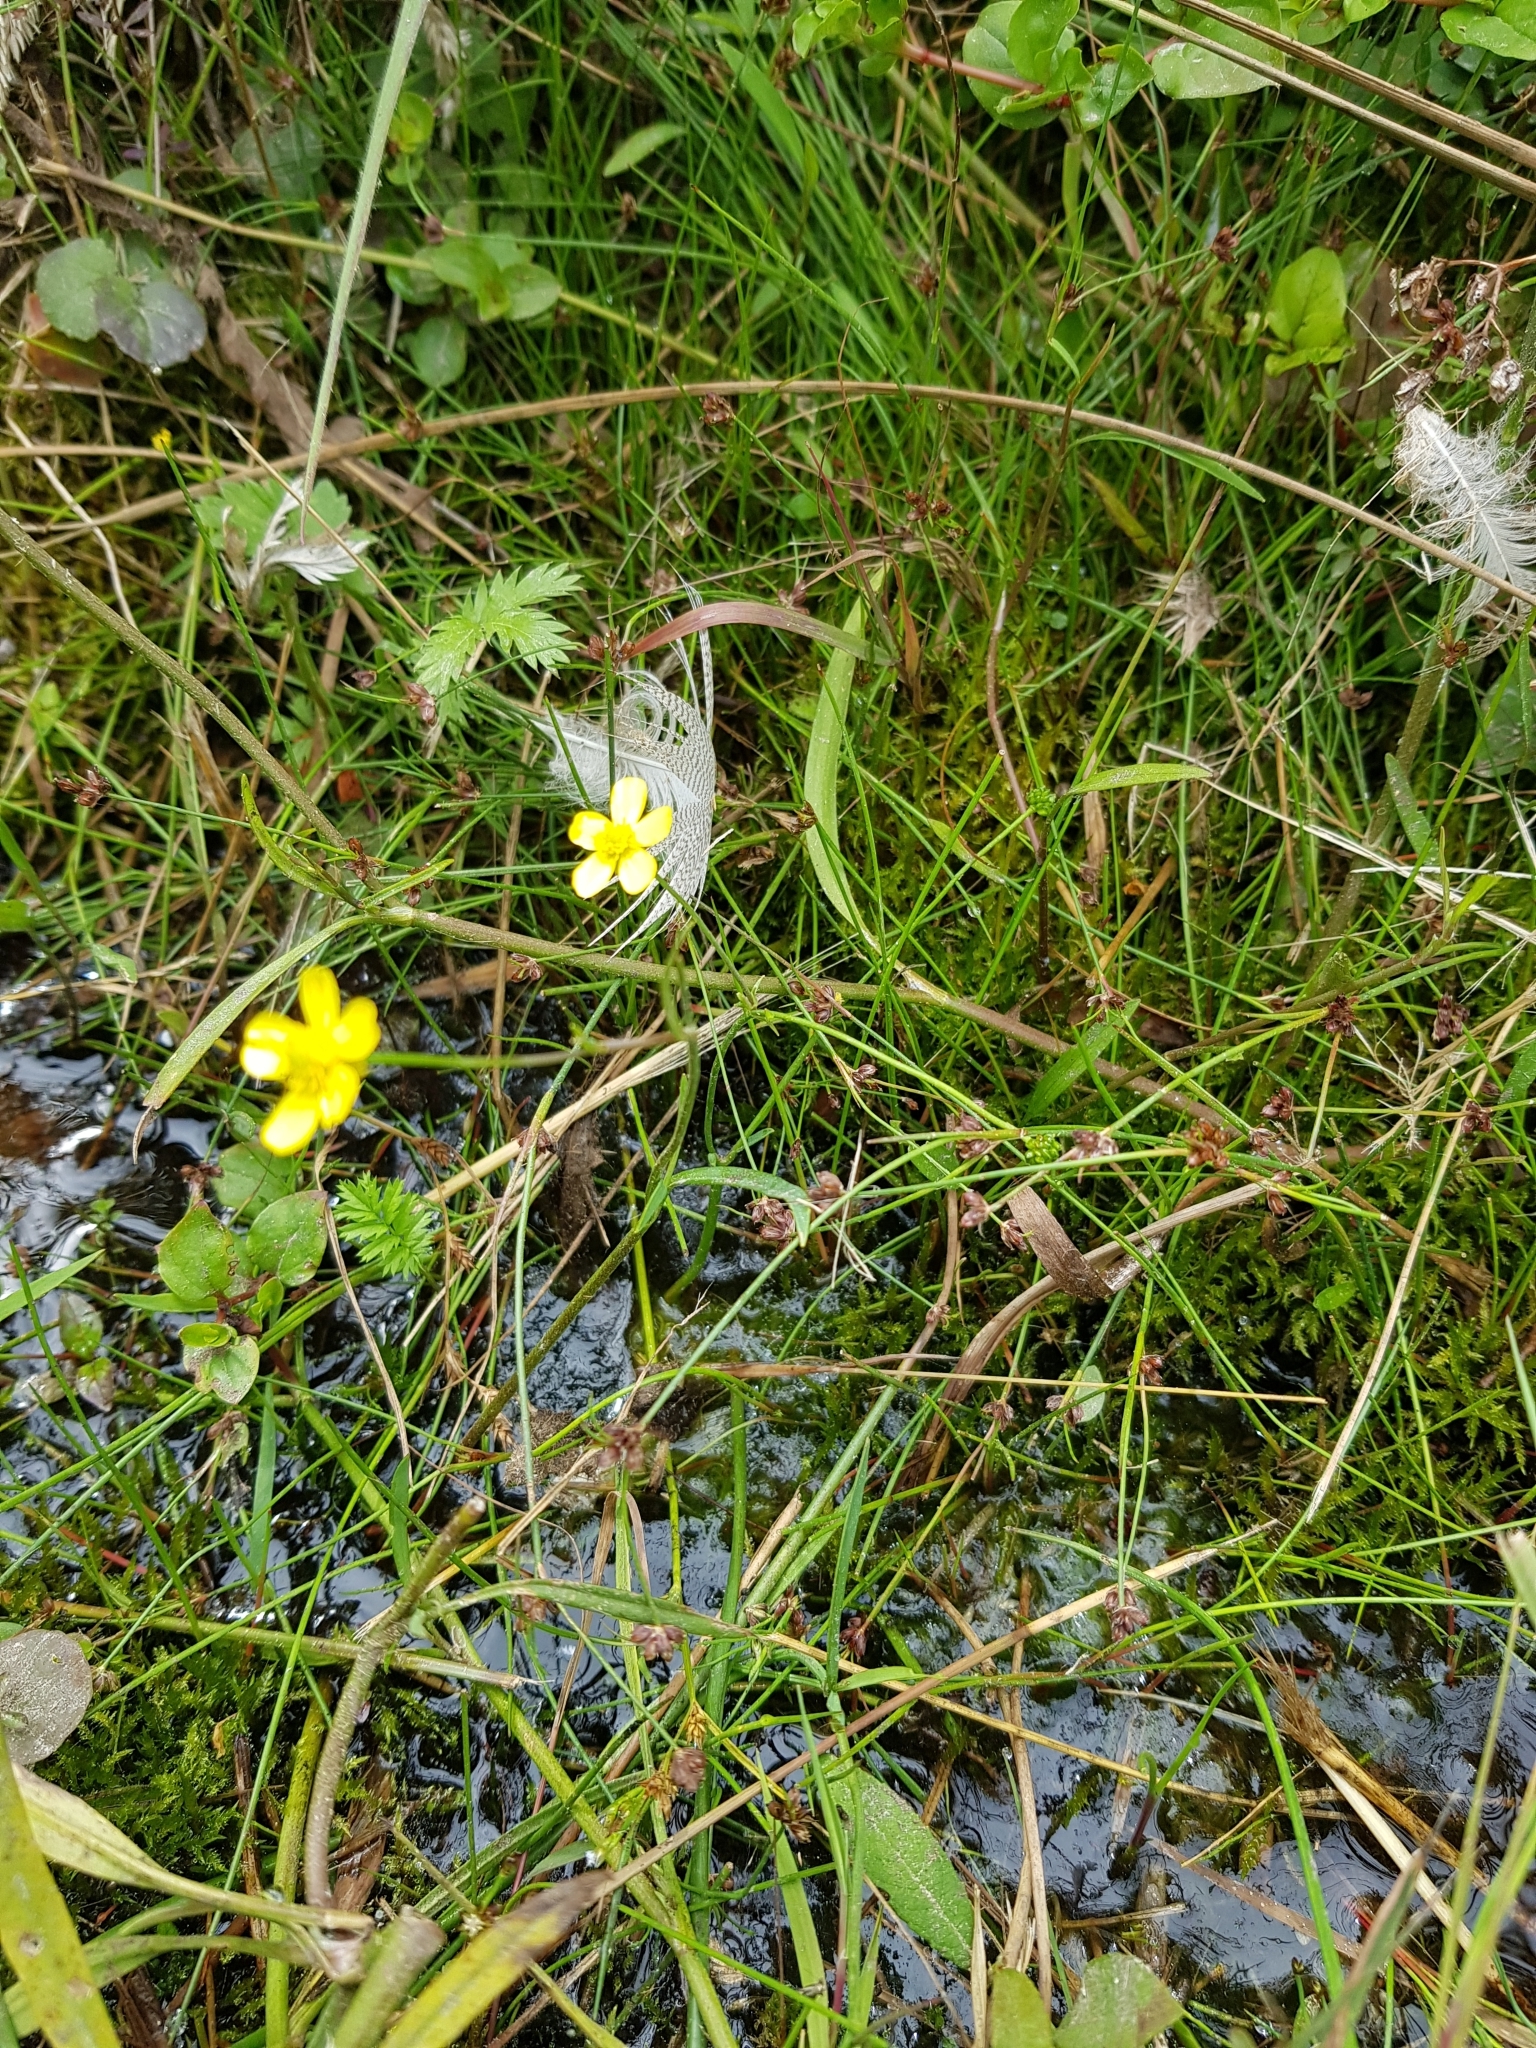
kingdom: Plantae
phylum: Tracheophyta
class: Magnoliopsida
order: Ranunculales
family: Ranunculaceae
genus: Ranunculus
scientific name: Ranunculus flammula
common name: Lesser spearwort
